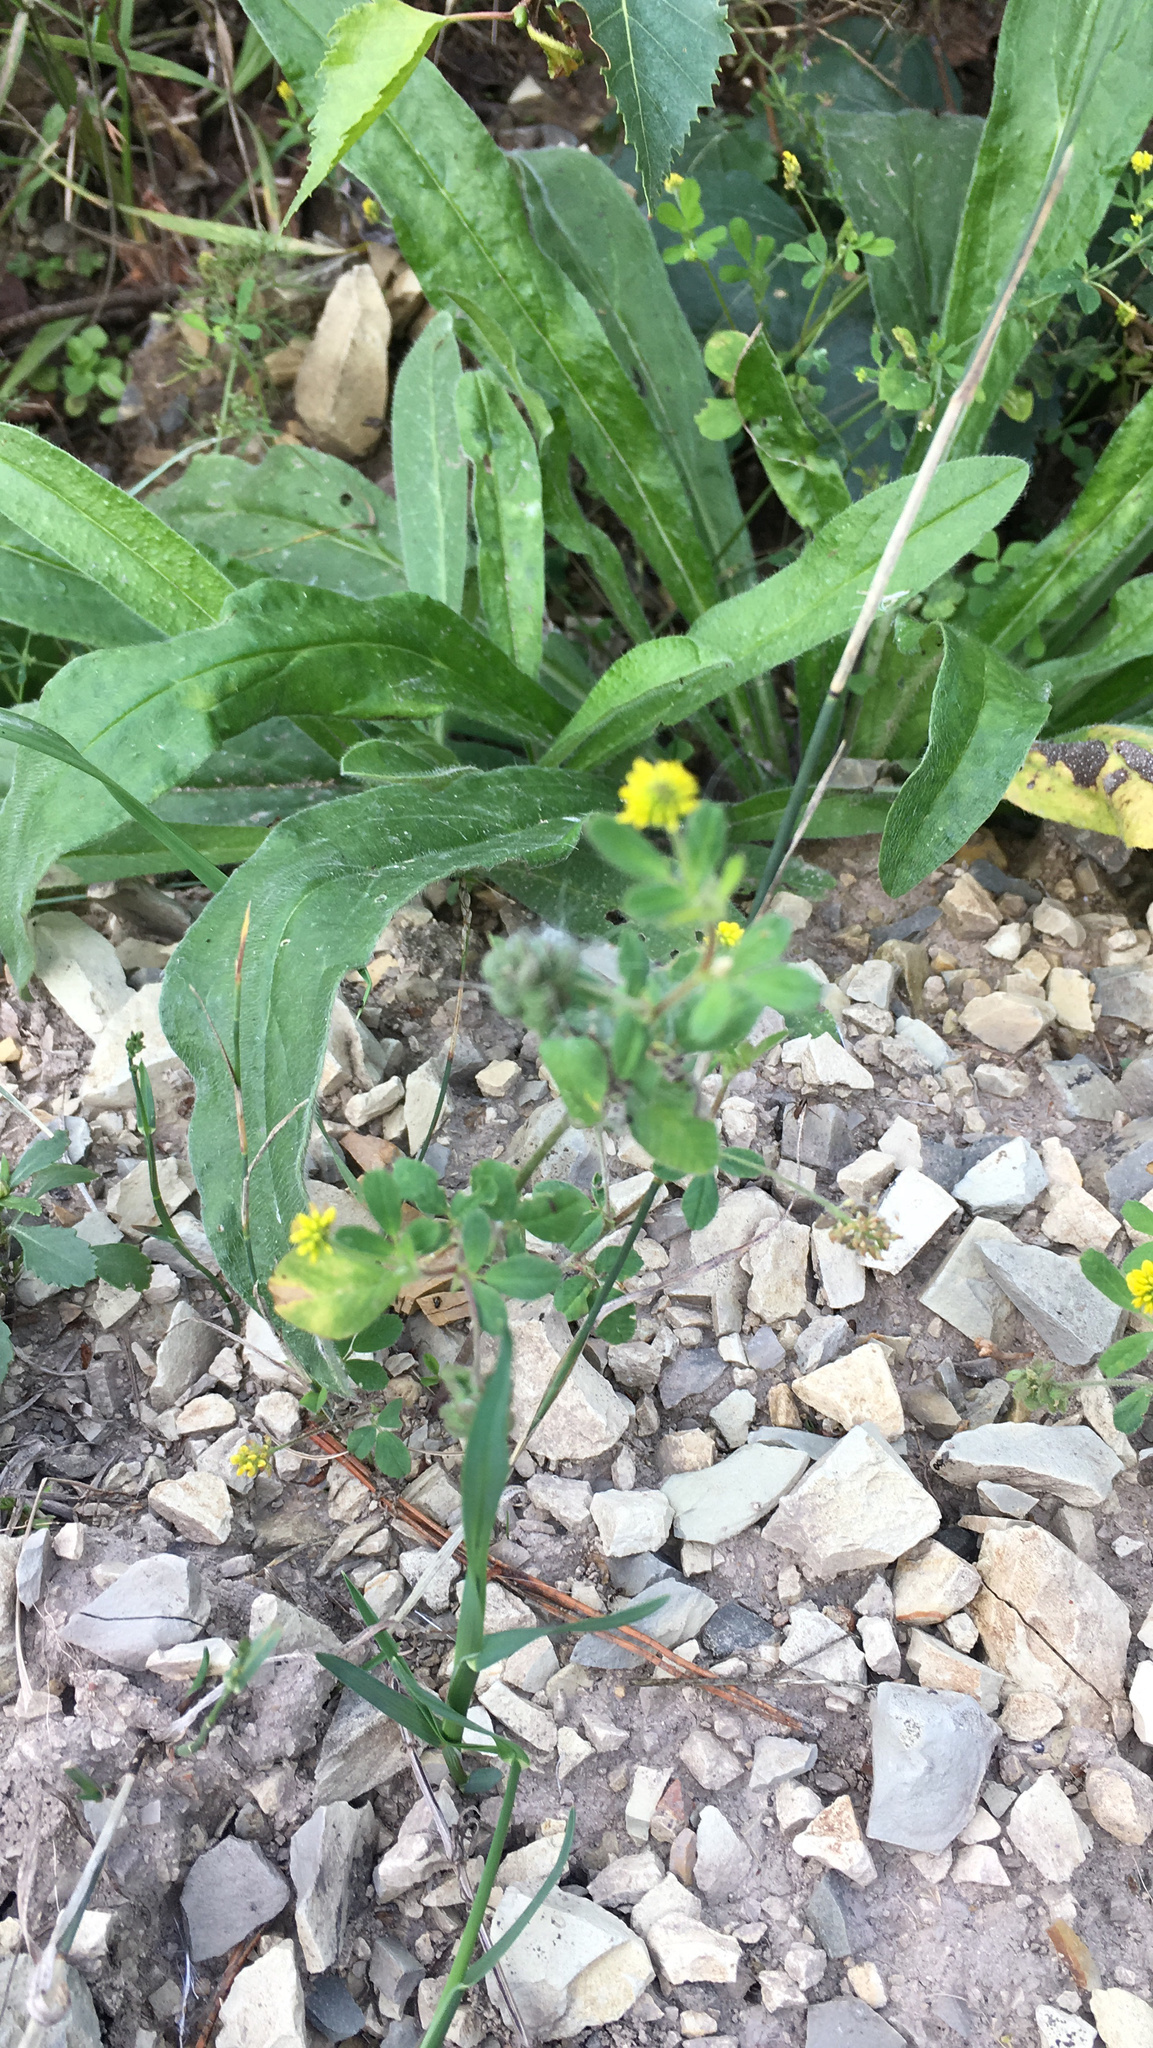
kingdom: Plantae
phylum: Tracheophyta
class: Magnoliopsida
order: Fabales
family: Fabaceae
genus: Medicago
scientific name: Medicago lupulina
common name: Black medick
